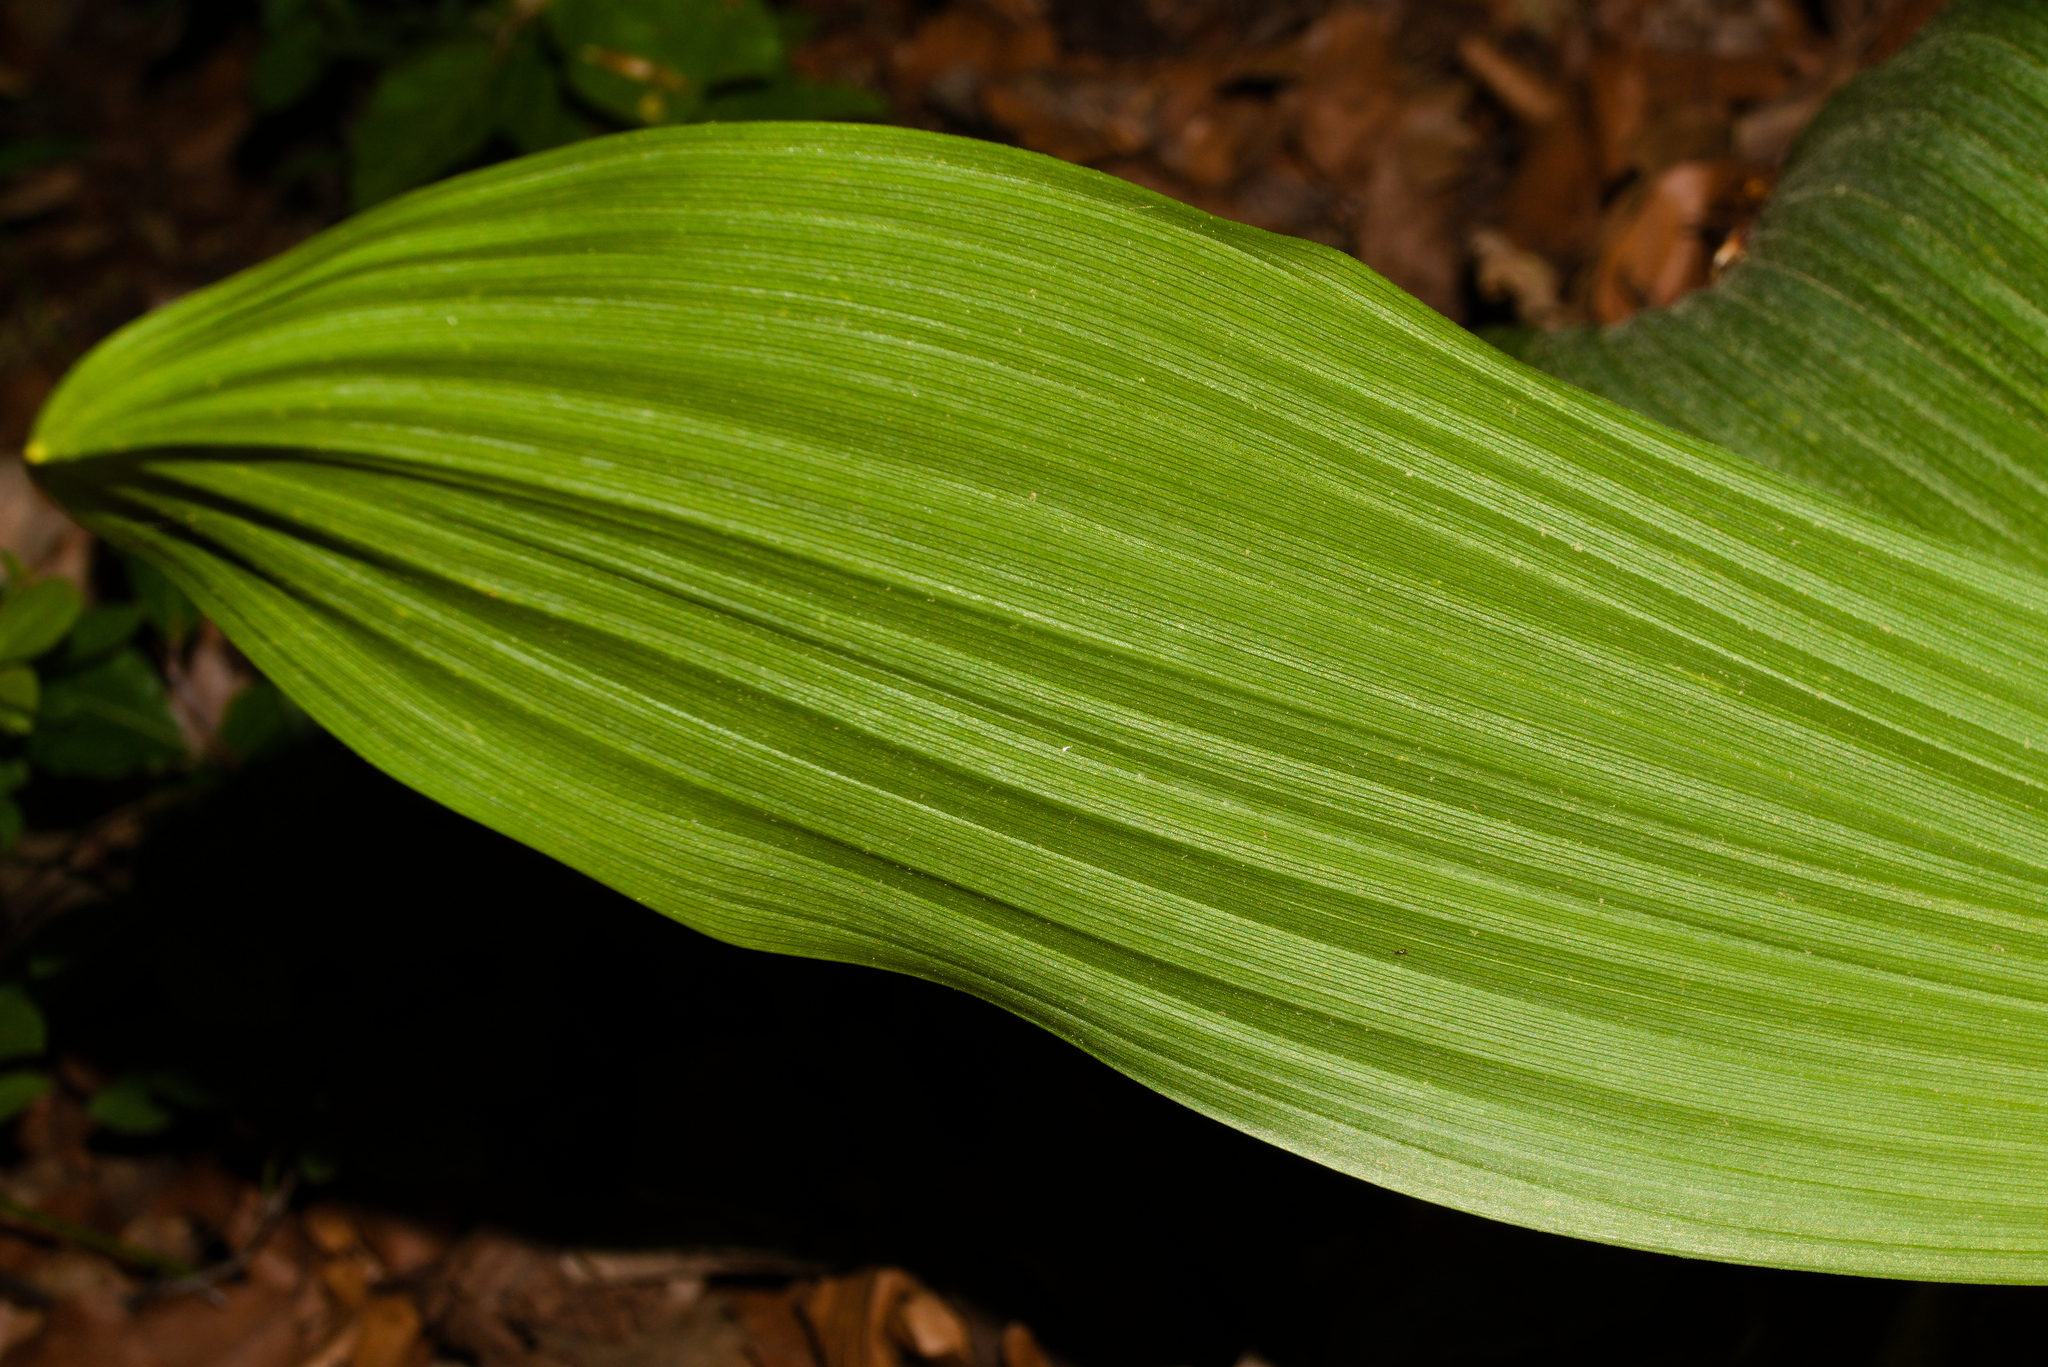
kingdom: Plantae
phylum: Tracheophyta
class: Liliopsida
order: Liliales
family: Melanthiaceae
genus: Veratrum
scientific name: Veratrum nigrum
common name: Black veratrum
